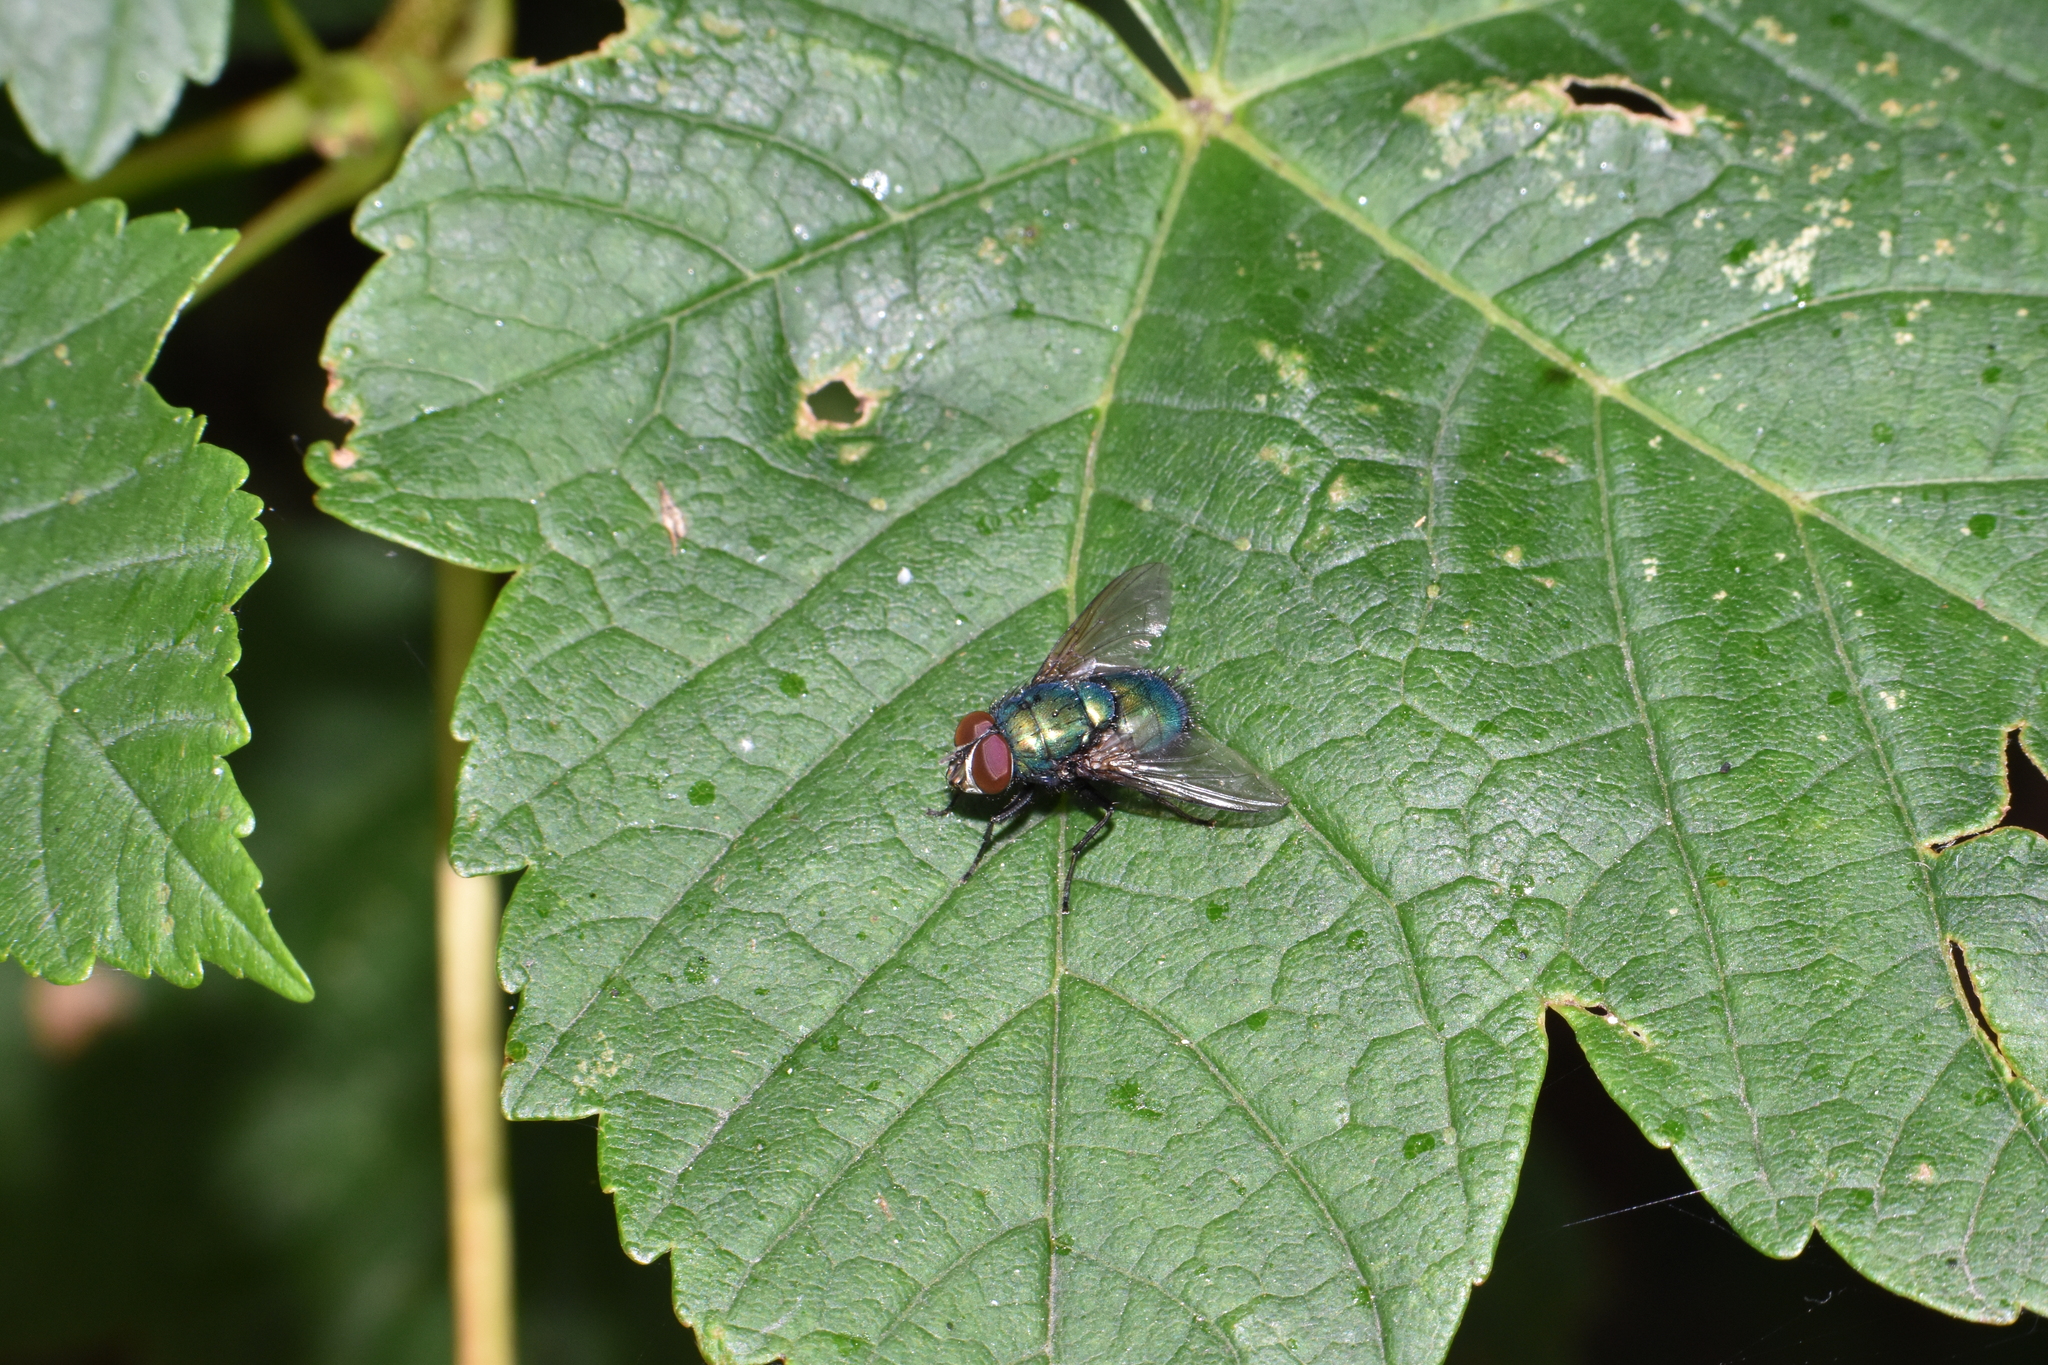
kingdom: Animalia
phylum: Arthropoda
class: Insecta
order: Diptera
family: Calliphoridae
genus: Lucilia
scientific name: Lucilia
